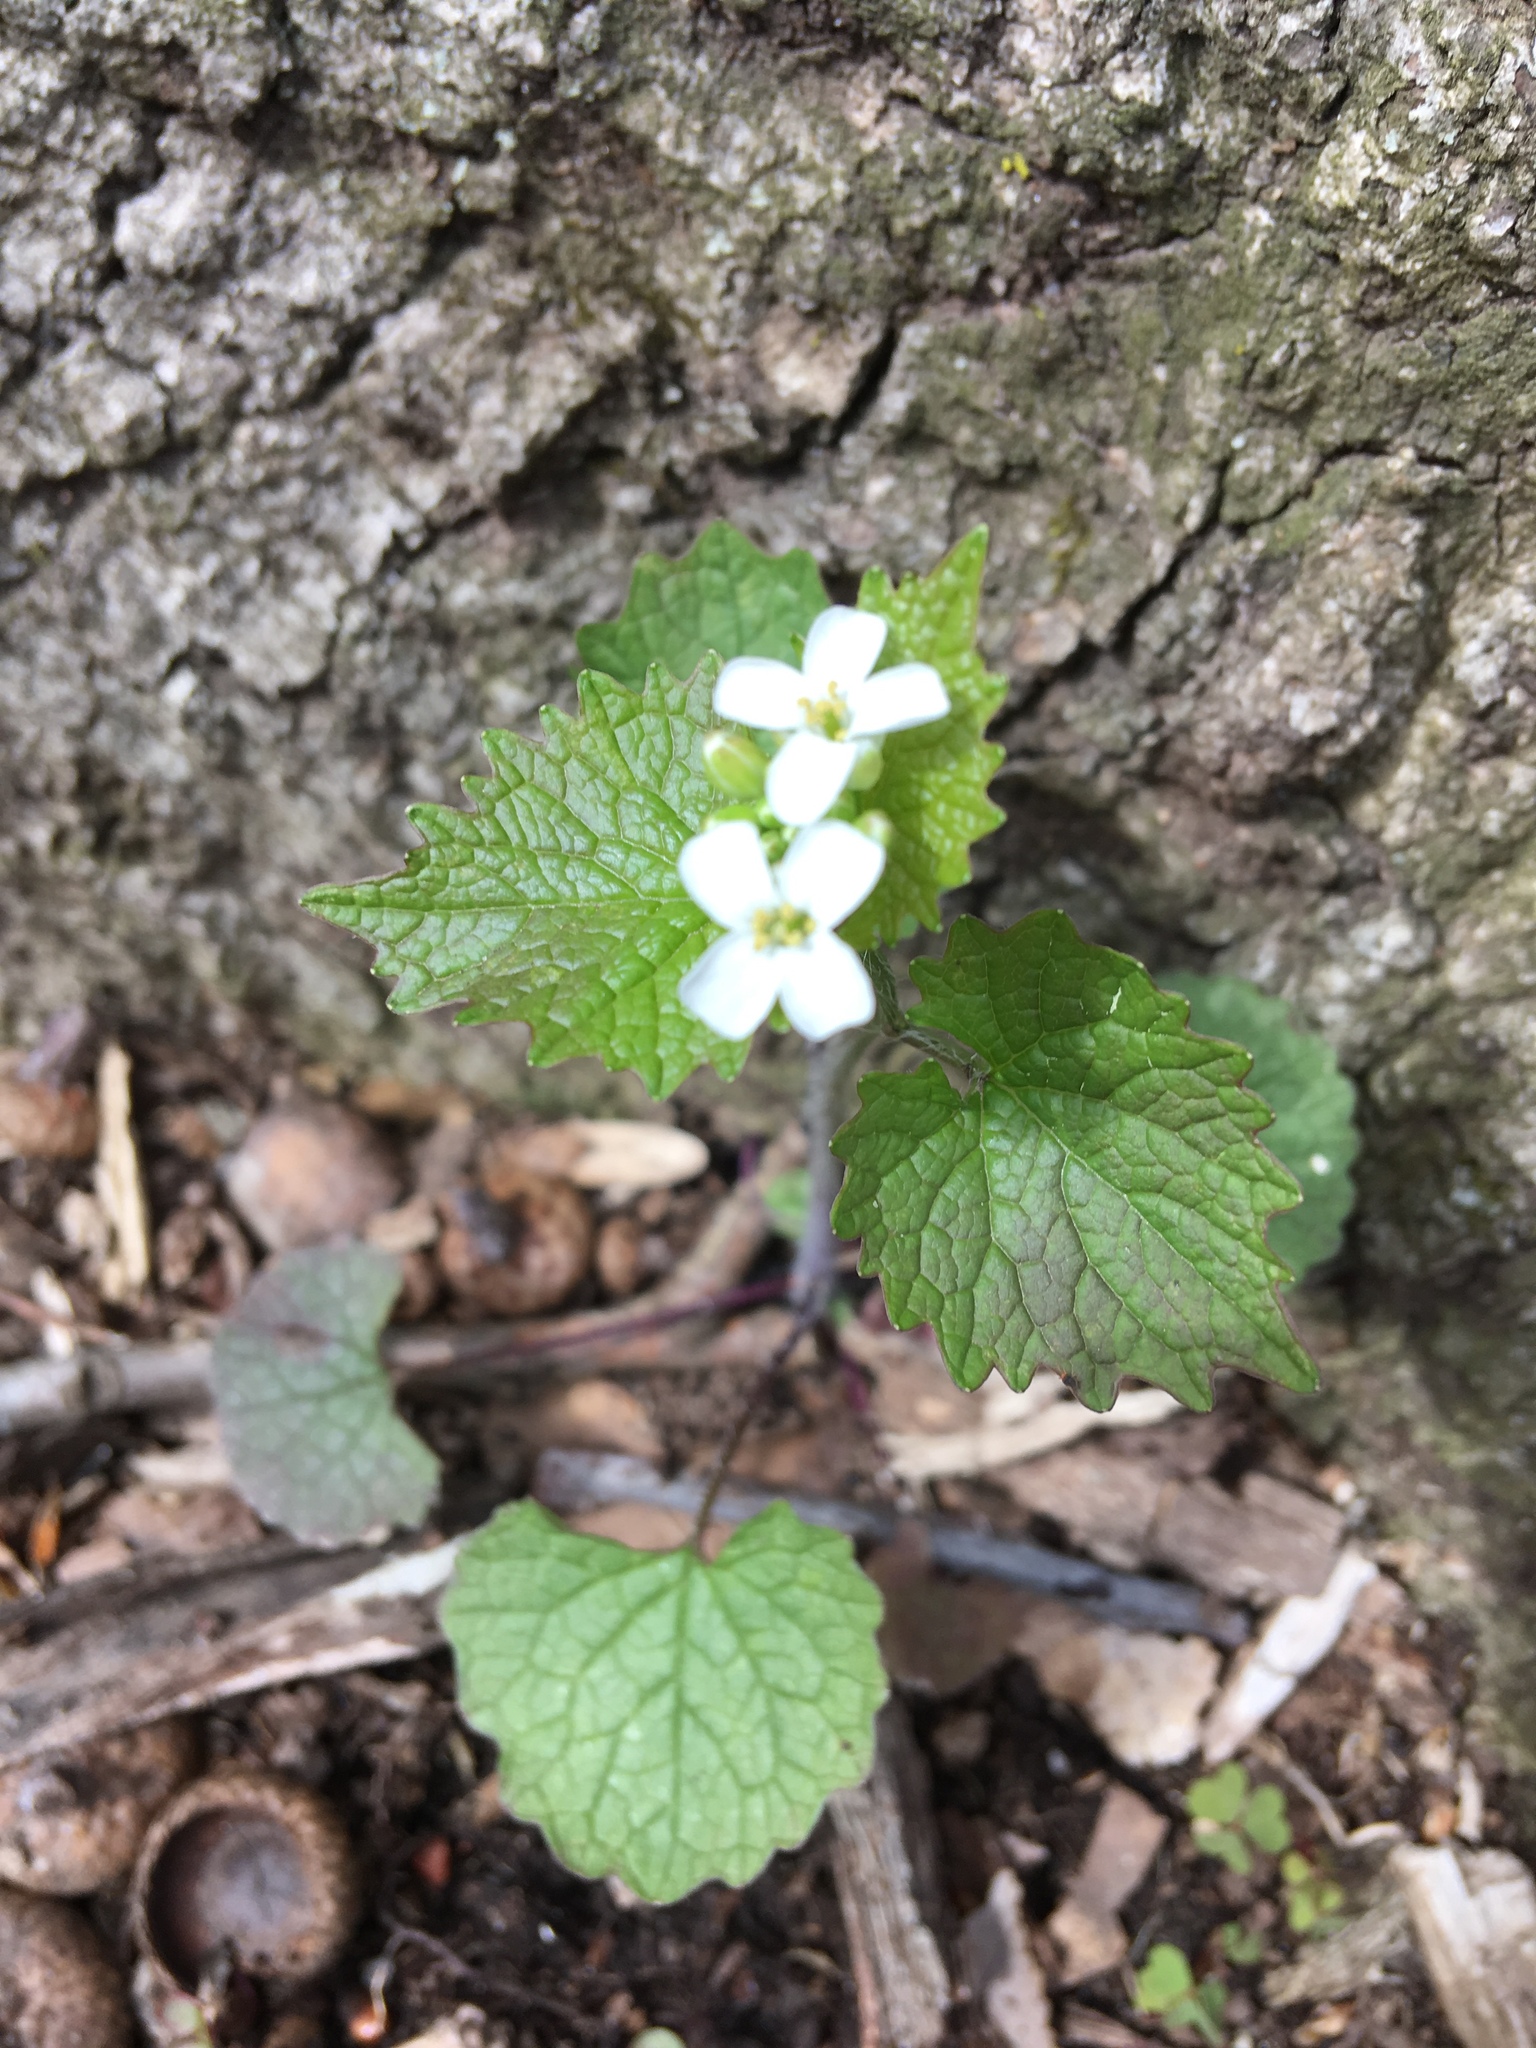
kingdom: Plantae
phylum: Tracheophyta
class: Magnoliopsida
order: Brassicales
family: Brassicaceae
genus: Alliaria
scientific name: Alliaria petiolata
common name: Garlic mustard
